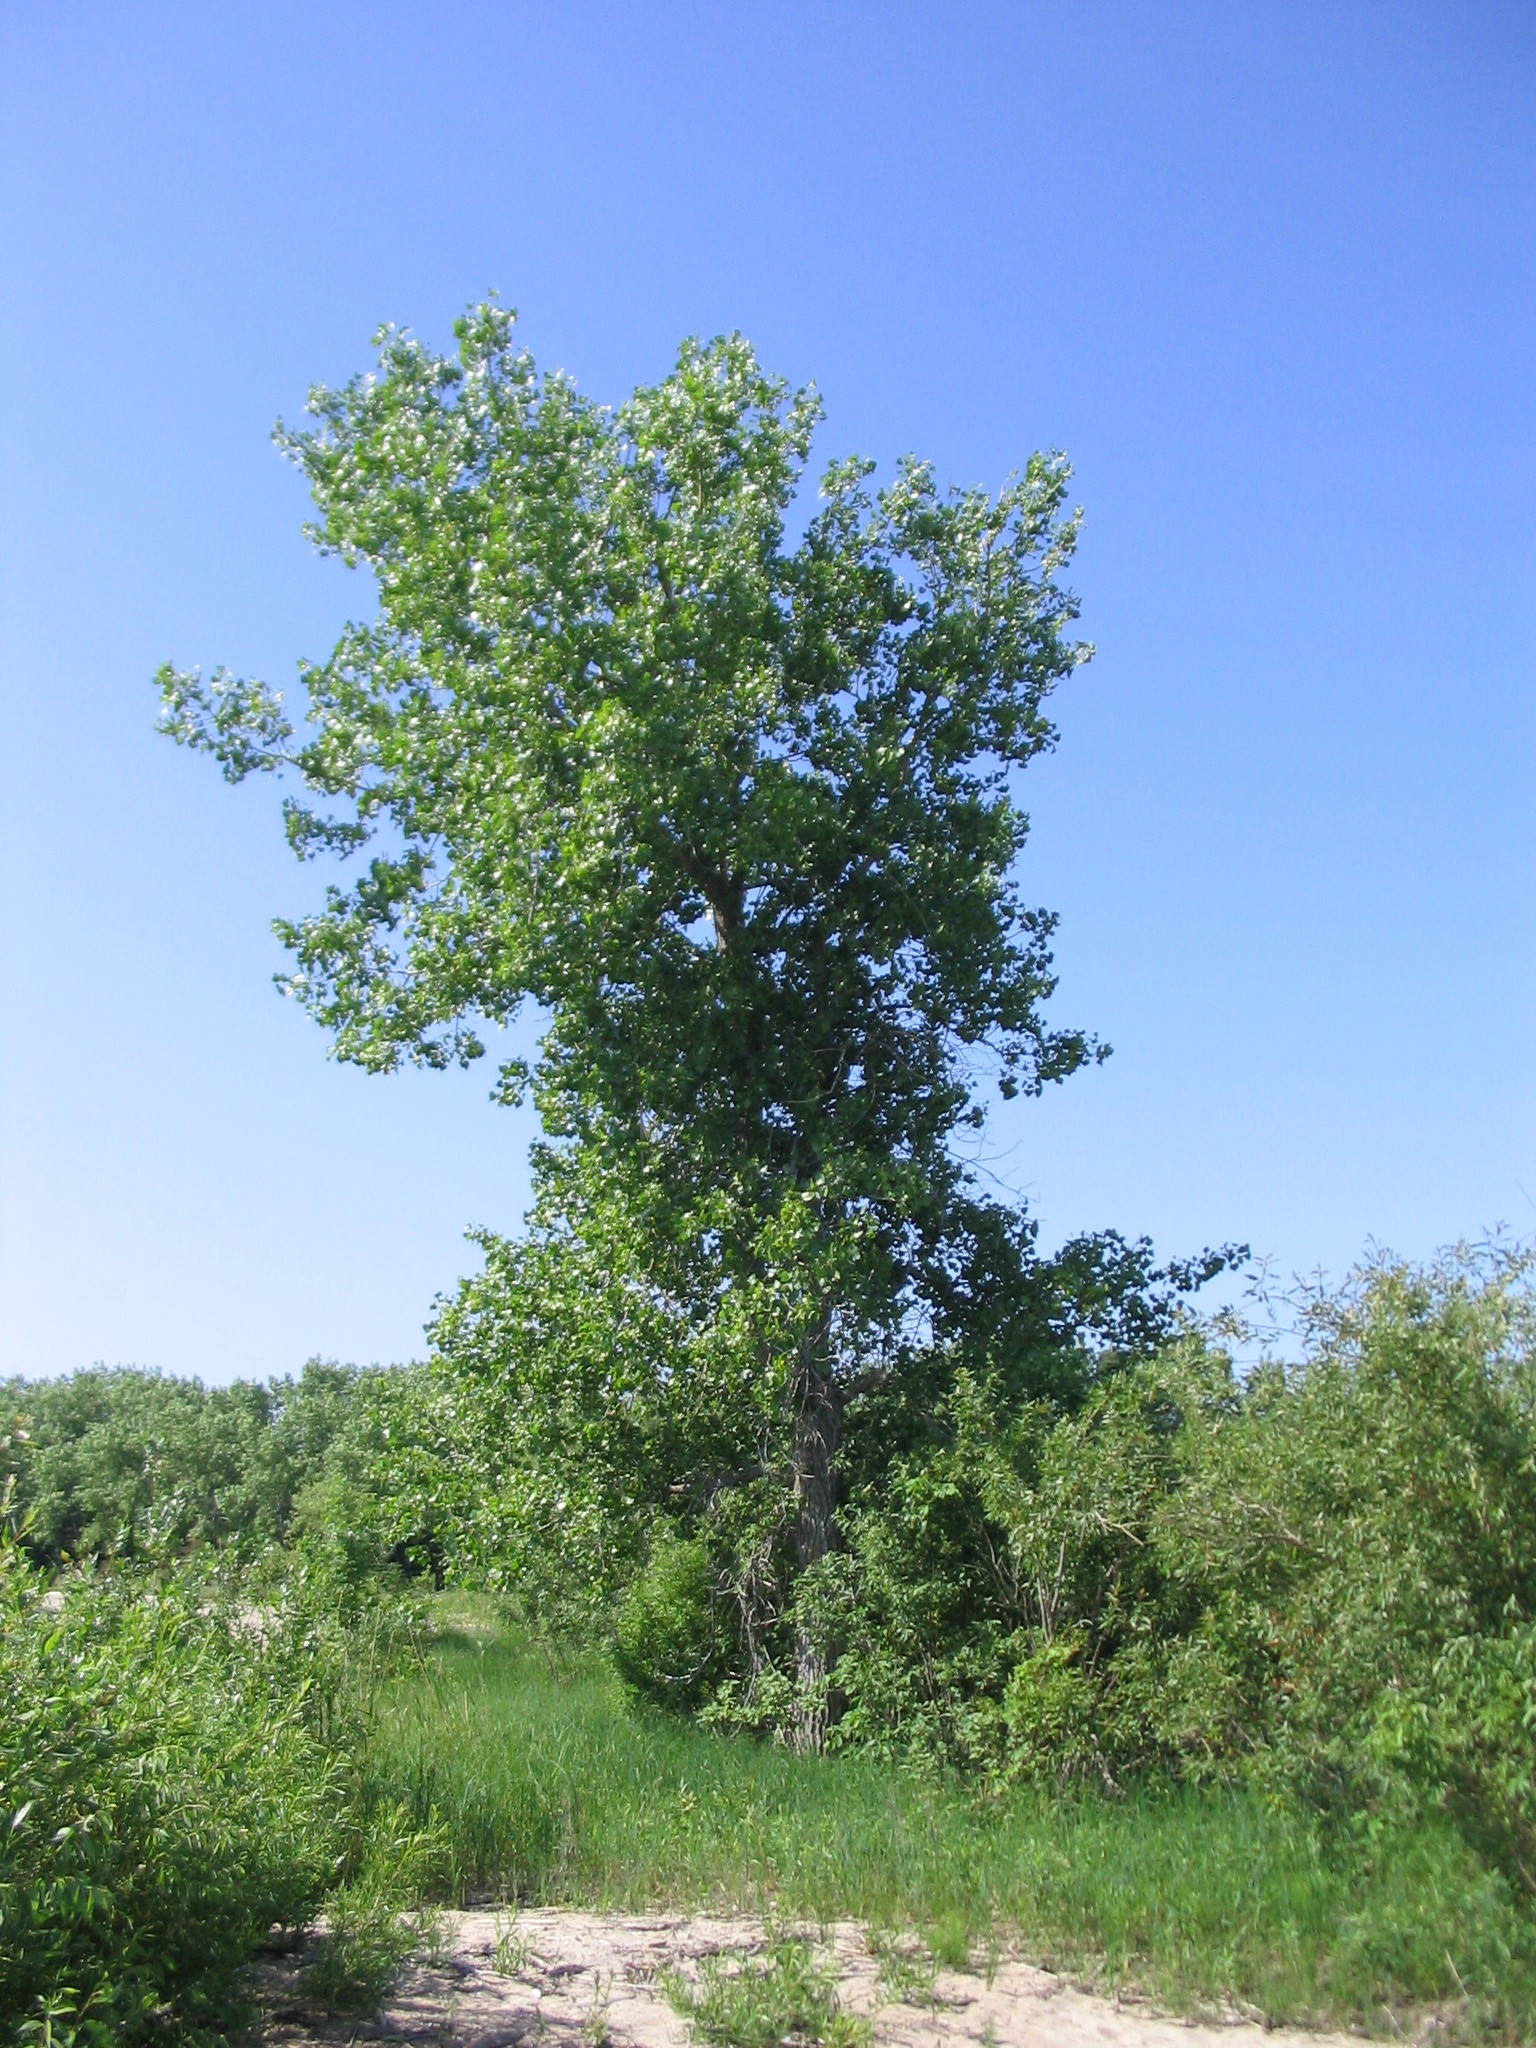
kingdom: Plantae
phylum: Tracheophyta
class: Magnoliopsida
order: Malpighiales
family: Salicaceae
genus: Populus
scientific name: Populus deltoides
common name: Eastern cottonwood
